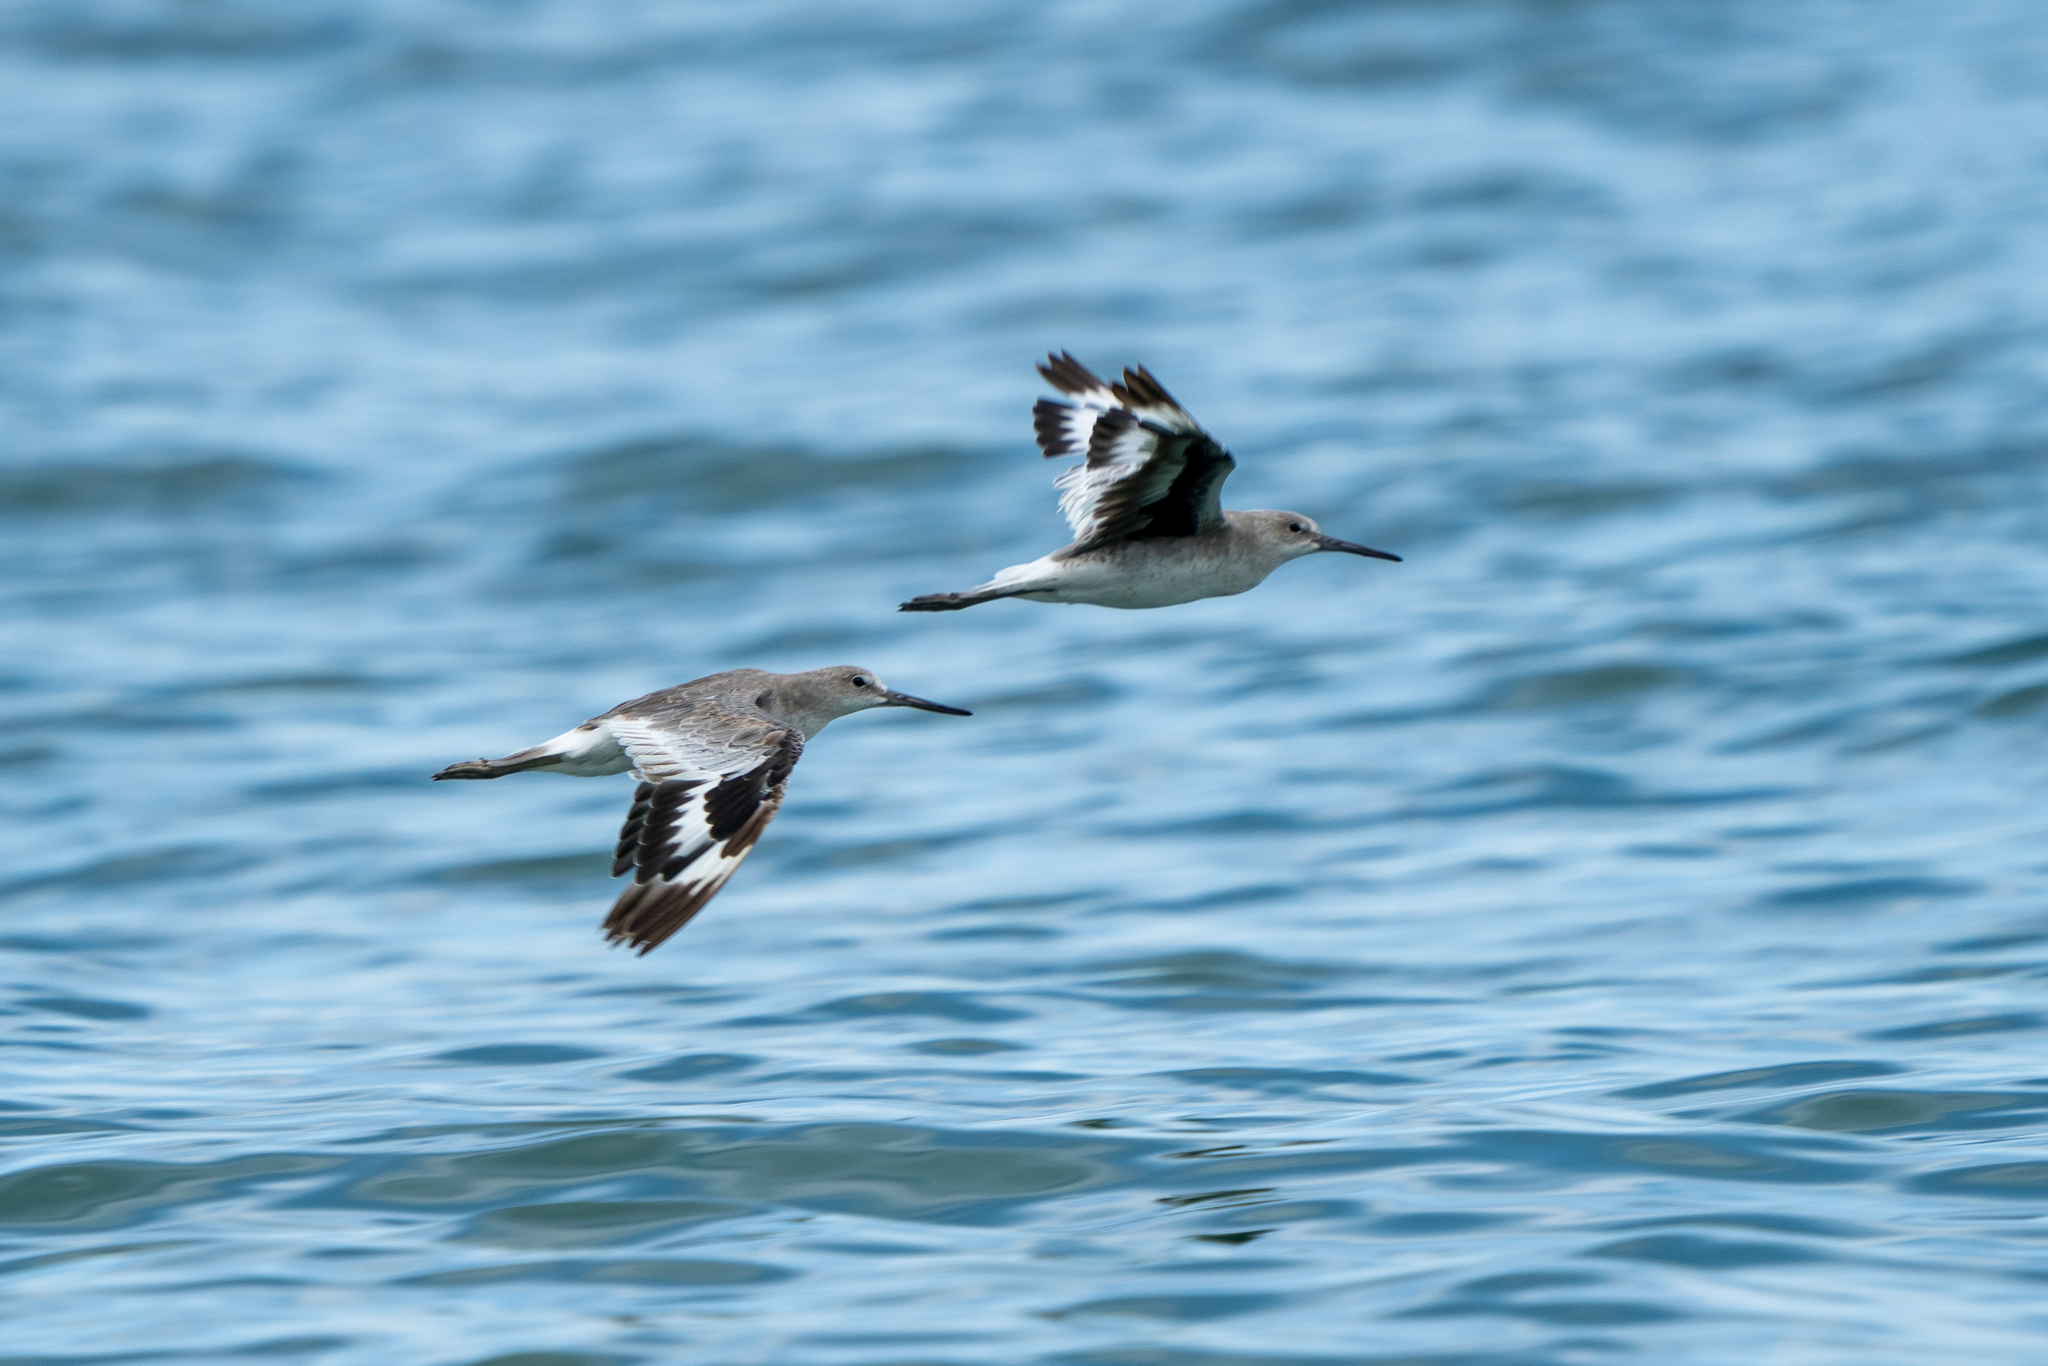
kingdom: Animalia
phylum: Chordata
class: Aves
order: Charadriiformes
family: Scolopacidae
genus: Tringa
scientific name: Tringa semipalmata
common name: Willet
